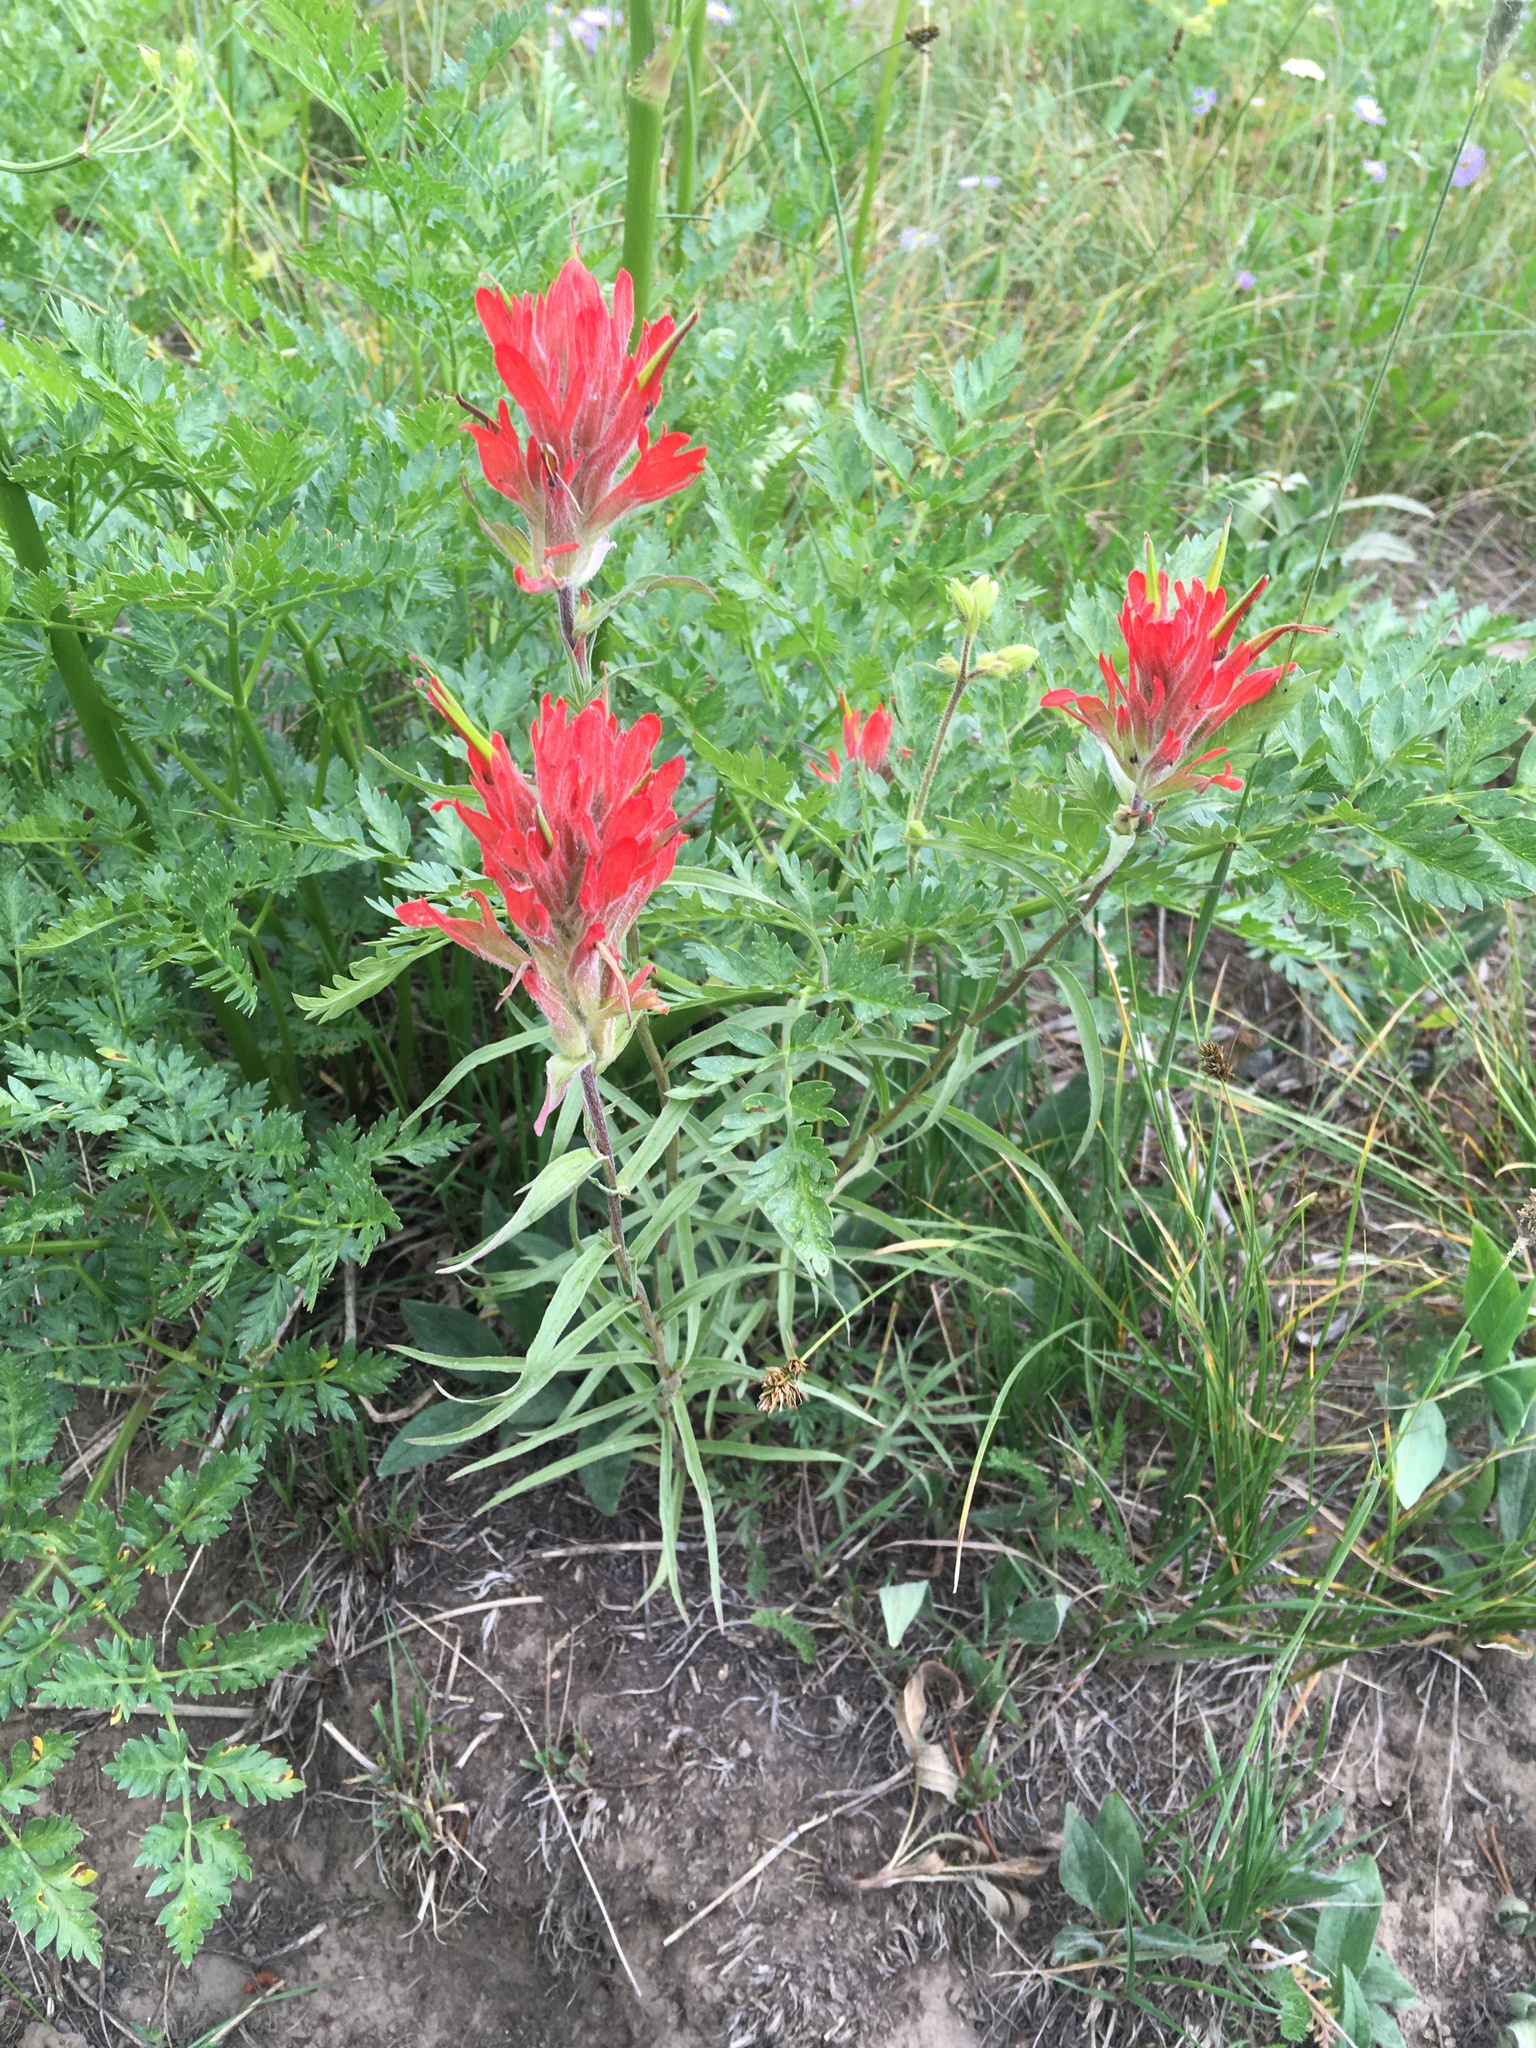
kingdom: Plantae
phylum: Tracheophyta
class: Magnoliopsida
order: Lamiales
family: Orobanchaceae
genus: Castilleja
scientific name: Castilleja miniata
